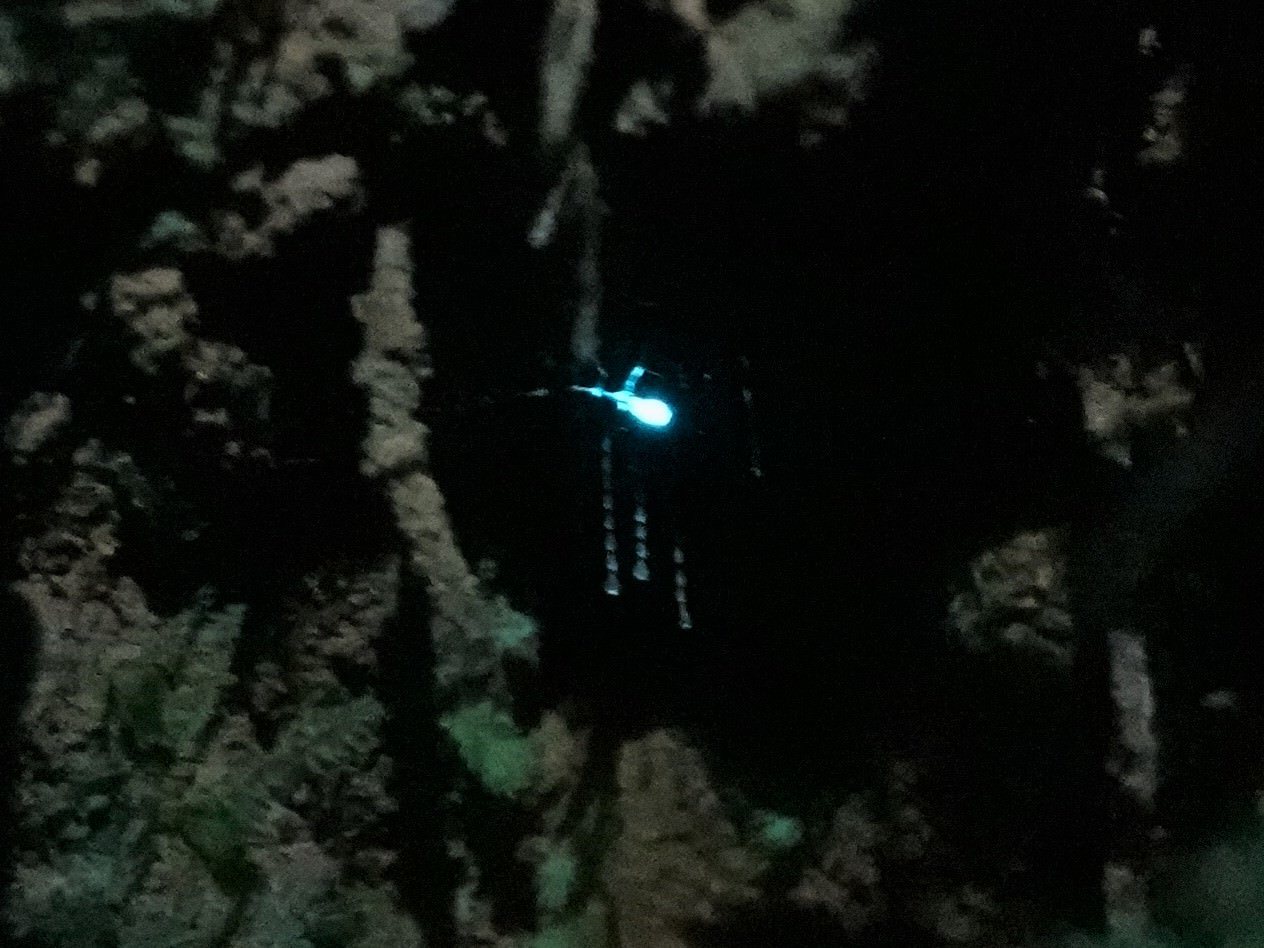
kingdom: Animalia
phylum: Arthropoda
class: Insecta
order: Diptera
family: Keroplatidae
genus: Arachnocampa
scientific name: Arachnocampa luminosa
